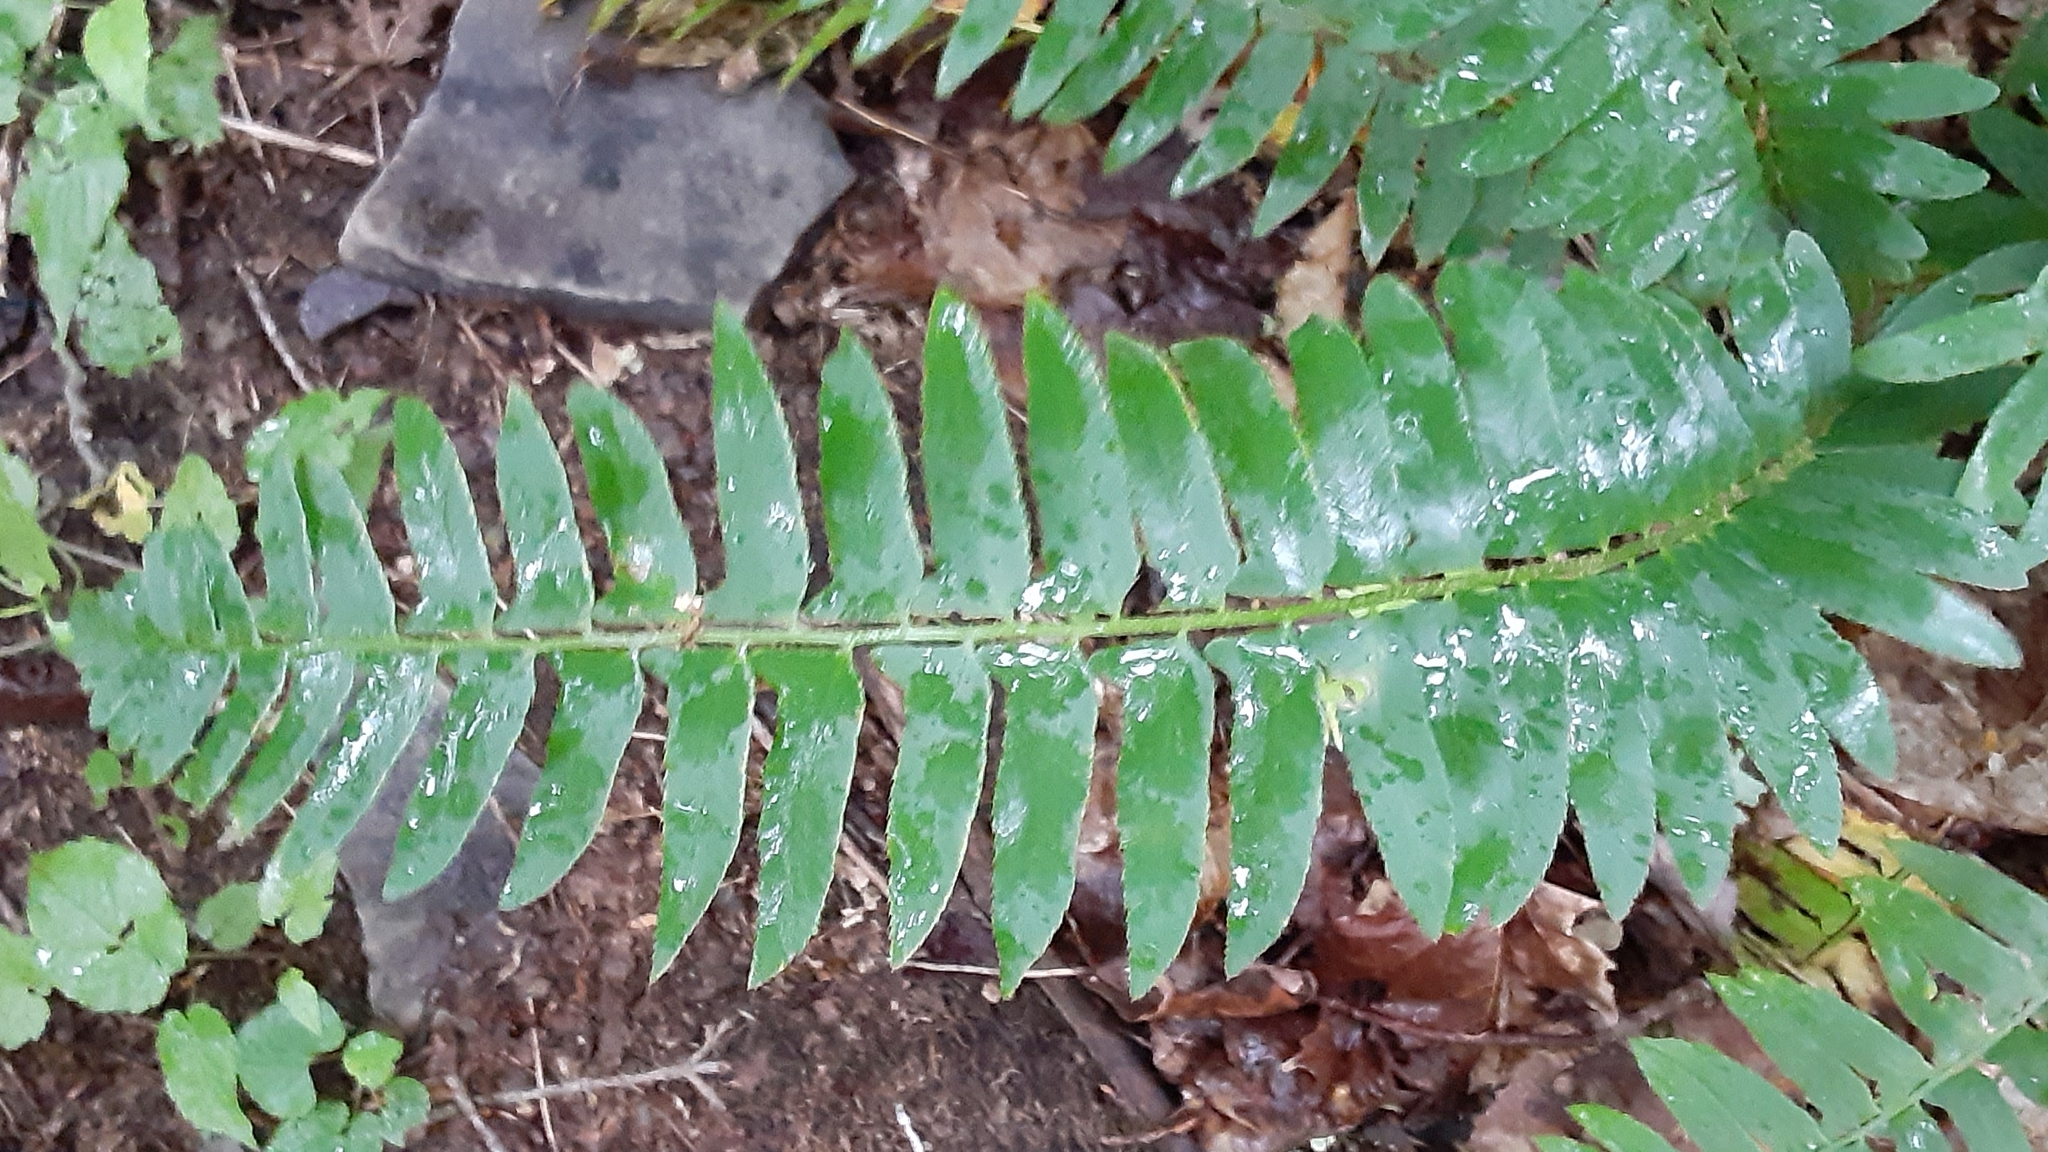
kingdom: Plantae
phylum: Tracheophyta
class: Polypodiopsida
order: Polypodiales
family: Dryopteridaceae
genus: Polystichum
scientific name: Polystichum acrostichoides
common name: Christmas fern
